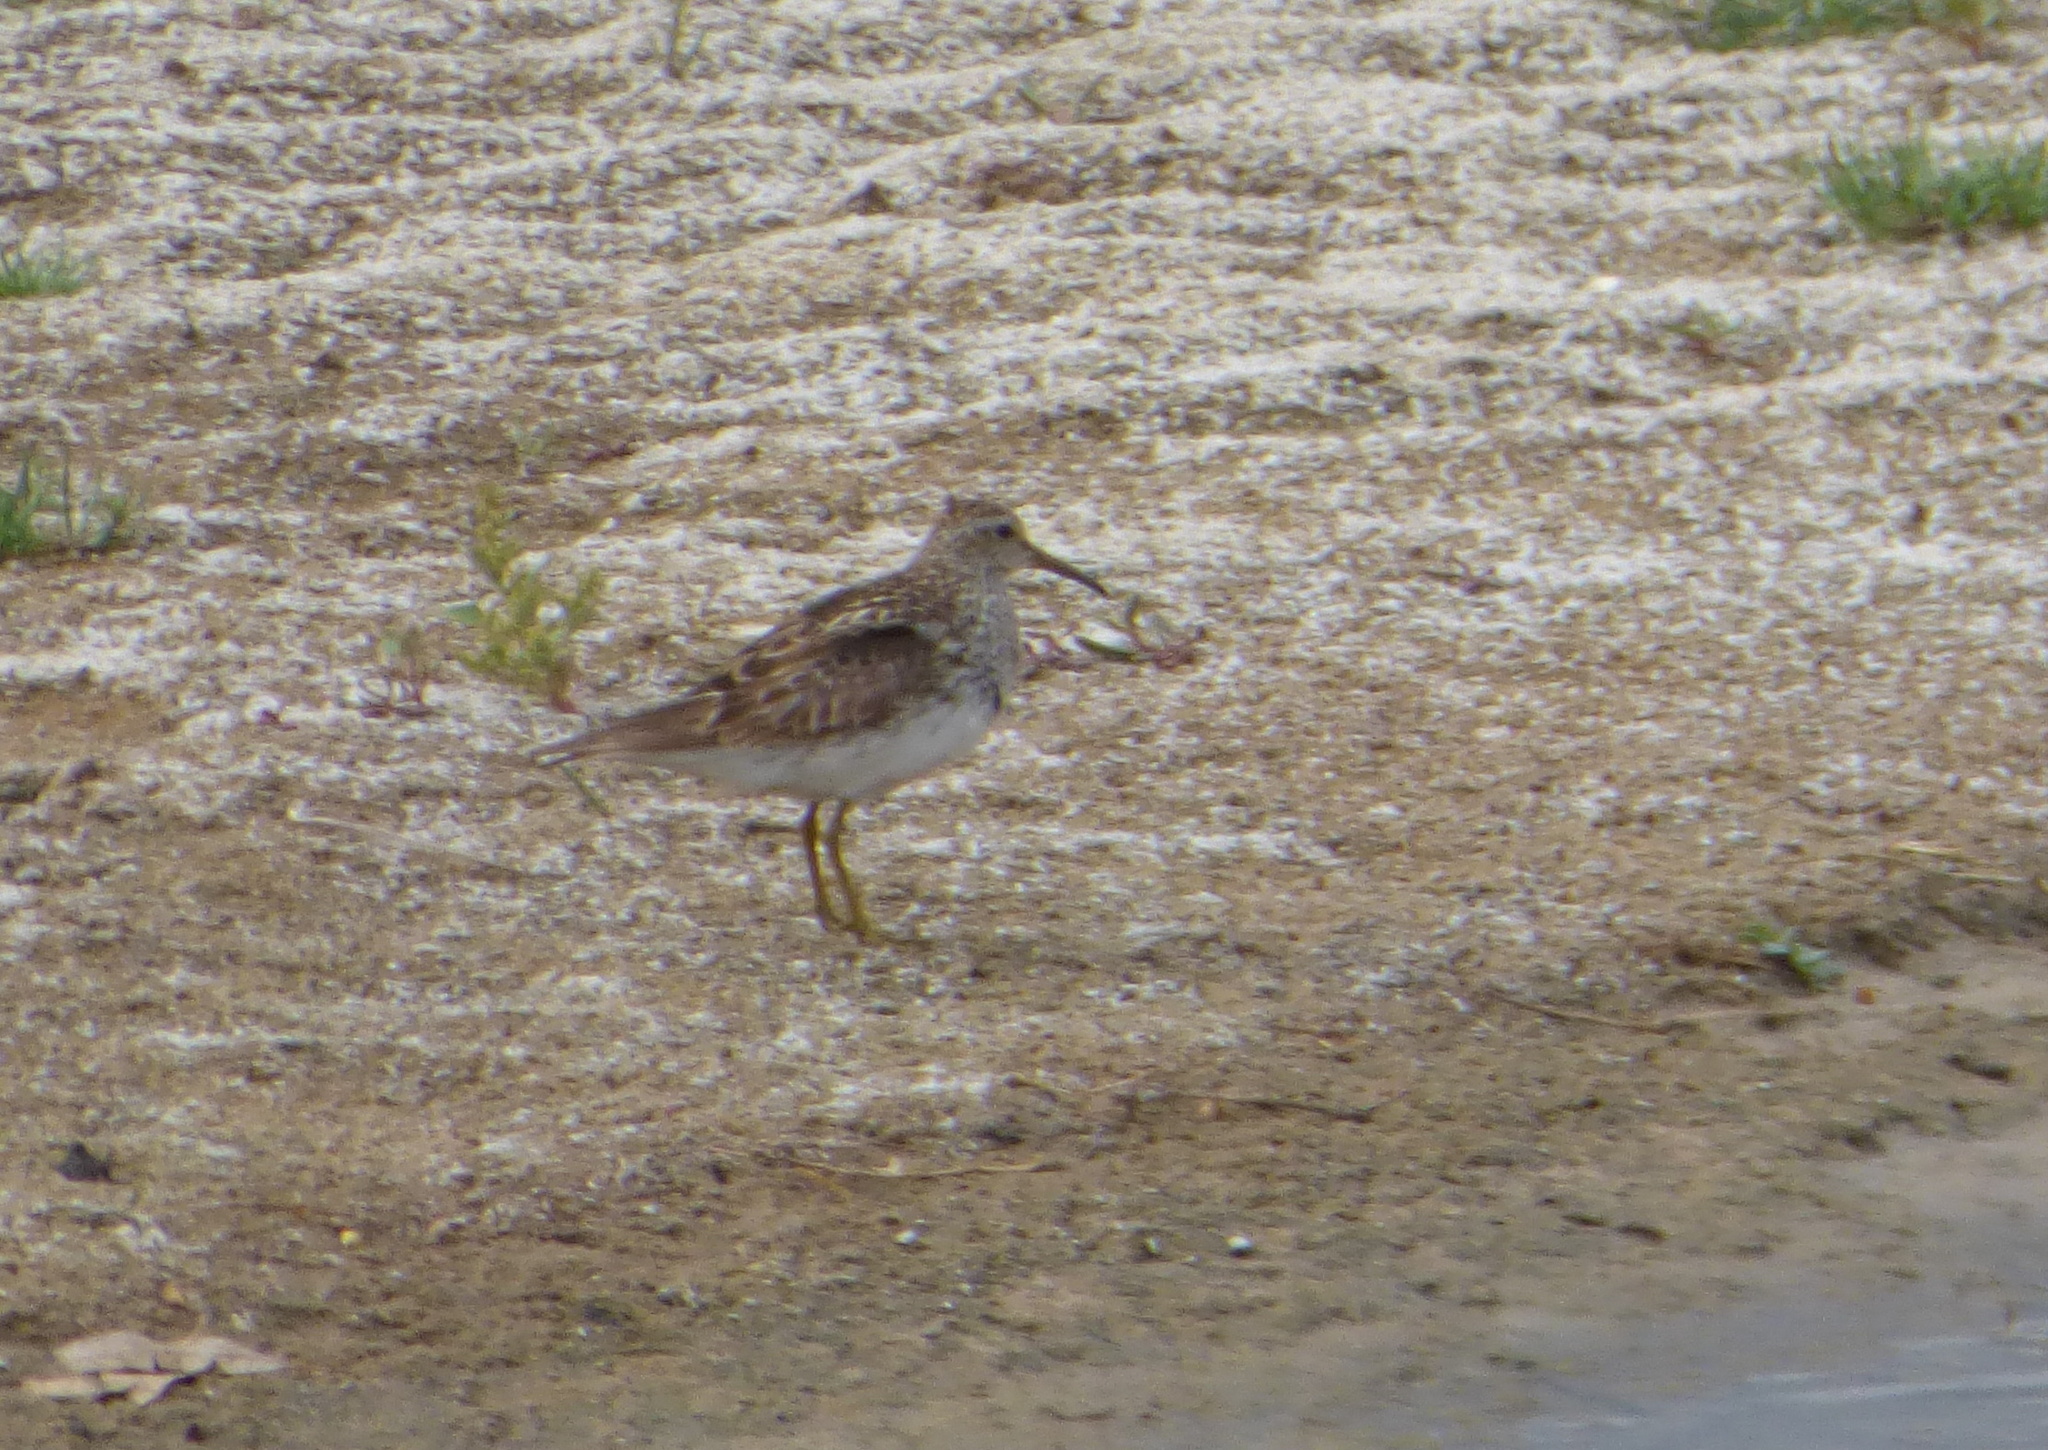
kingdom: Animalia
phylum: Chordata
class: Aves
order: Charadriiformes
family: Scolopacidae
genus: Calidris
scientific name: Calidris melanotos
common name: Pectoral sandpiper
